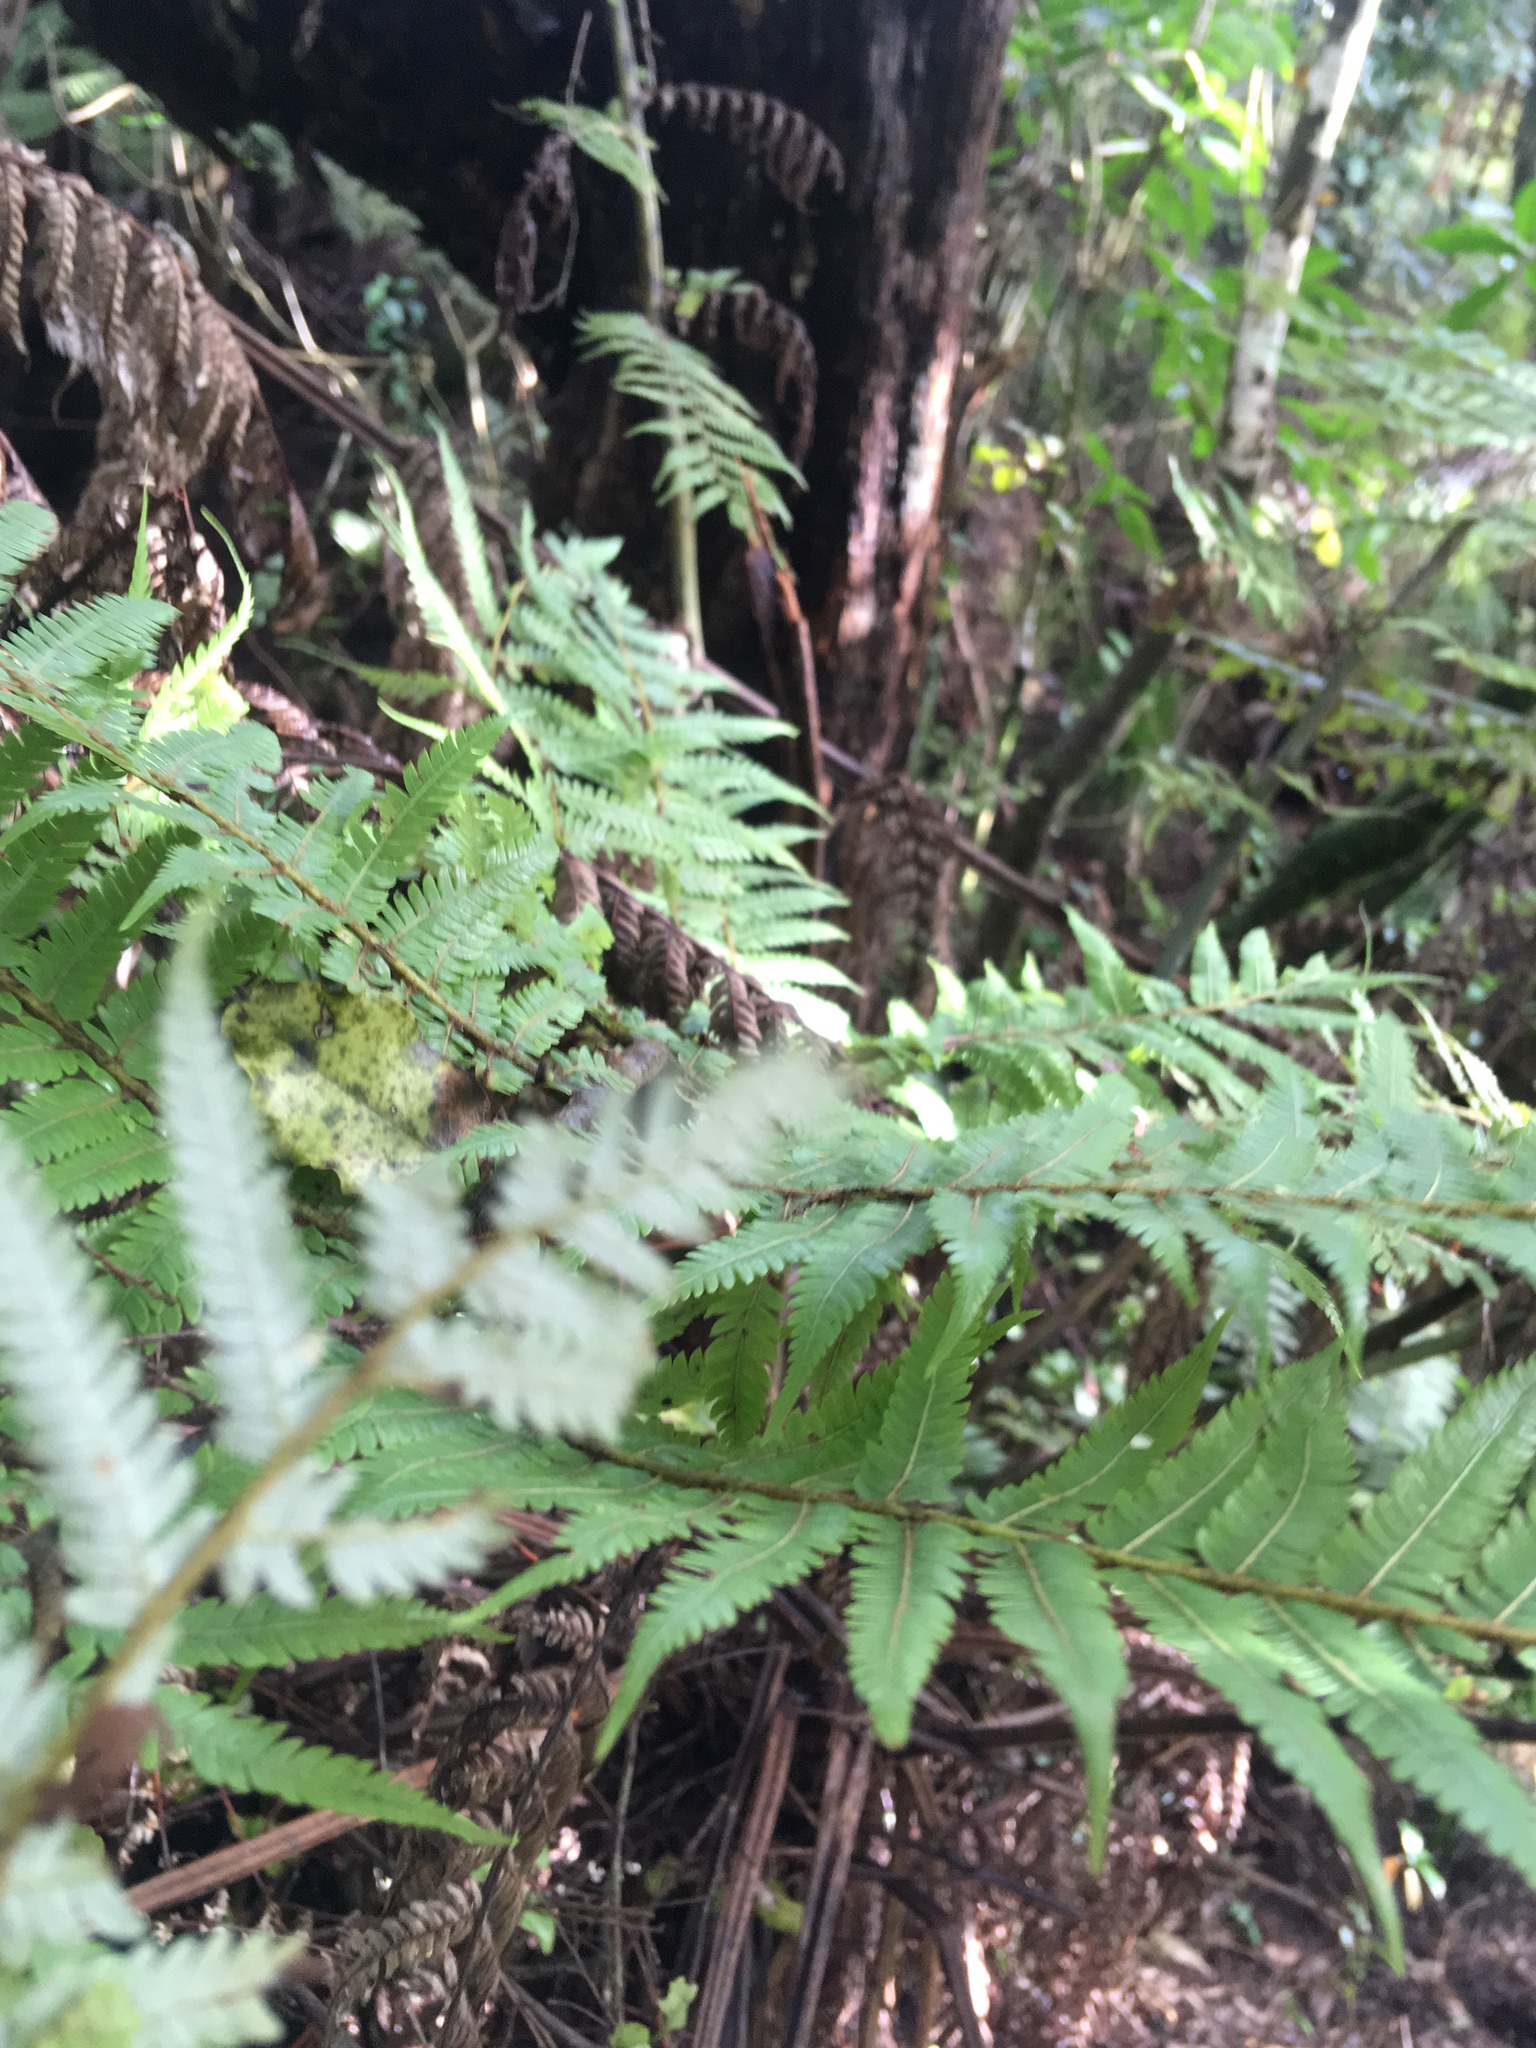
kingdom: Plantae
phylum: Tracheophyta
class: Polypodiopsida
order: Cyatheales
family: Cyatheaceae
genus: Alsophila
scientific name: Alsophila dealbata
